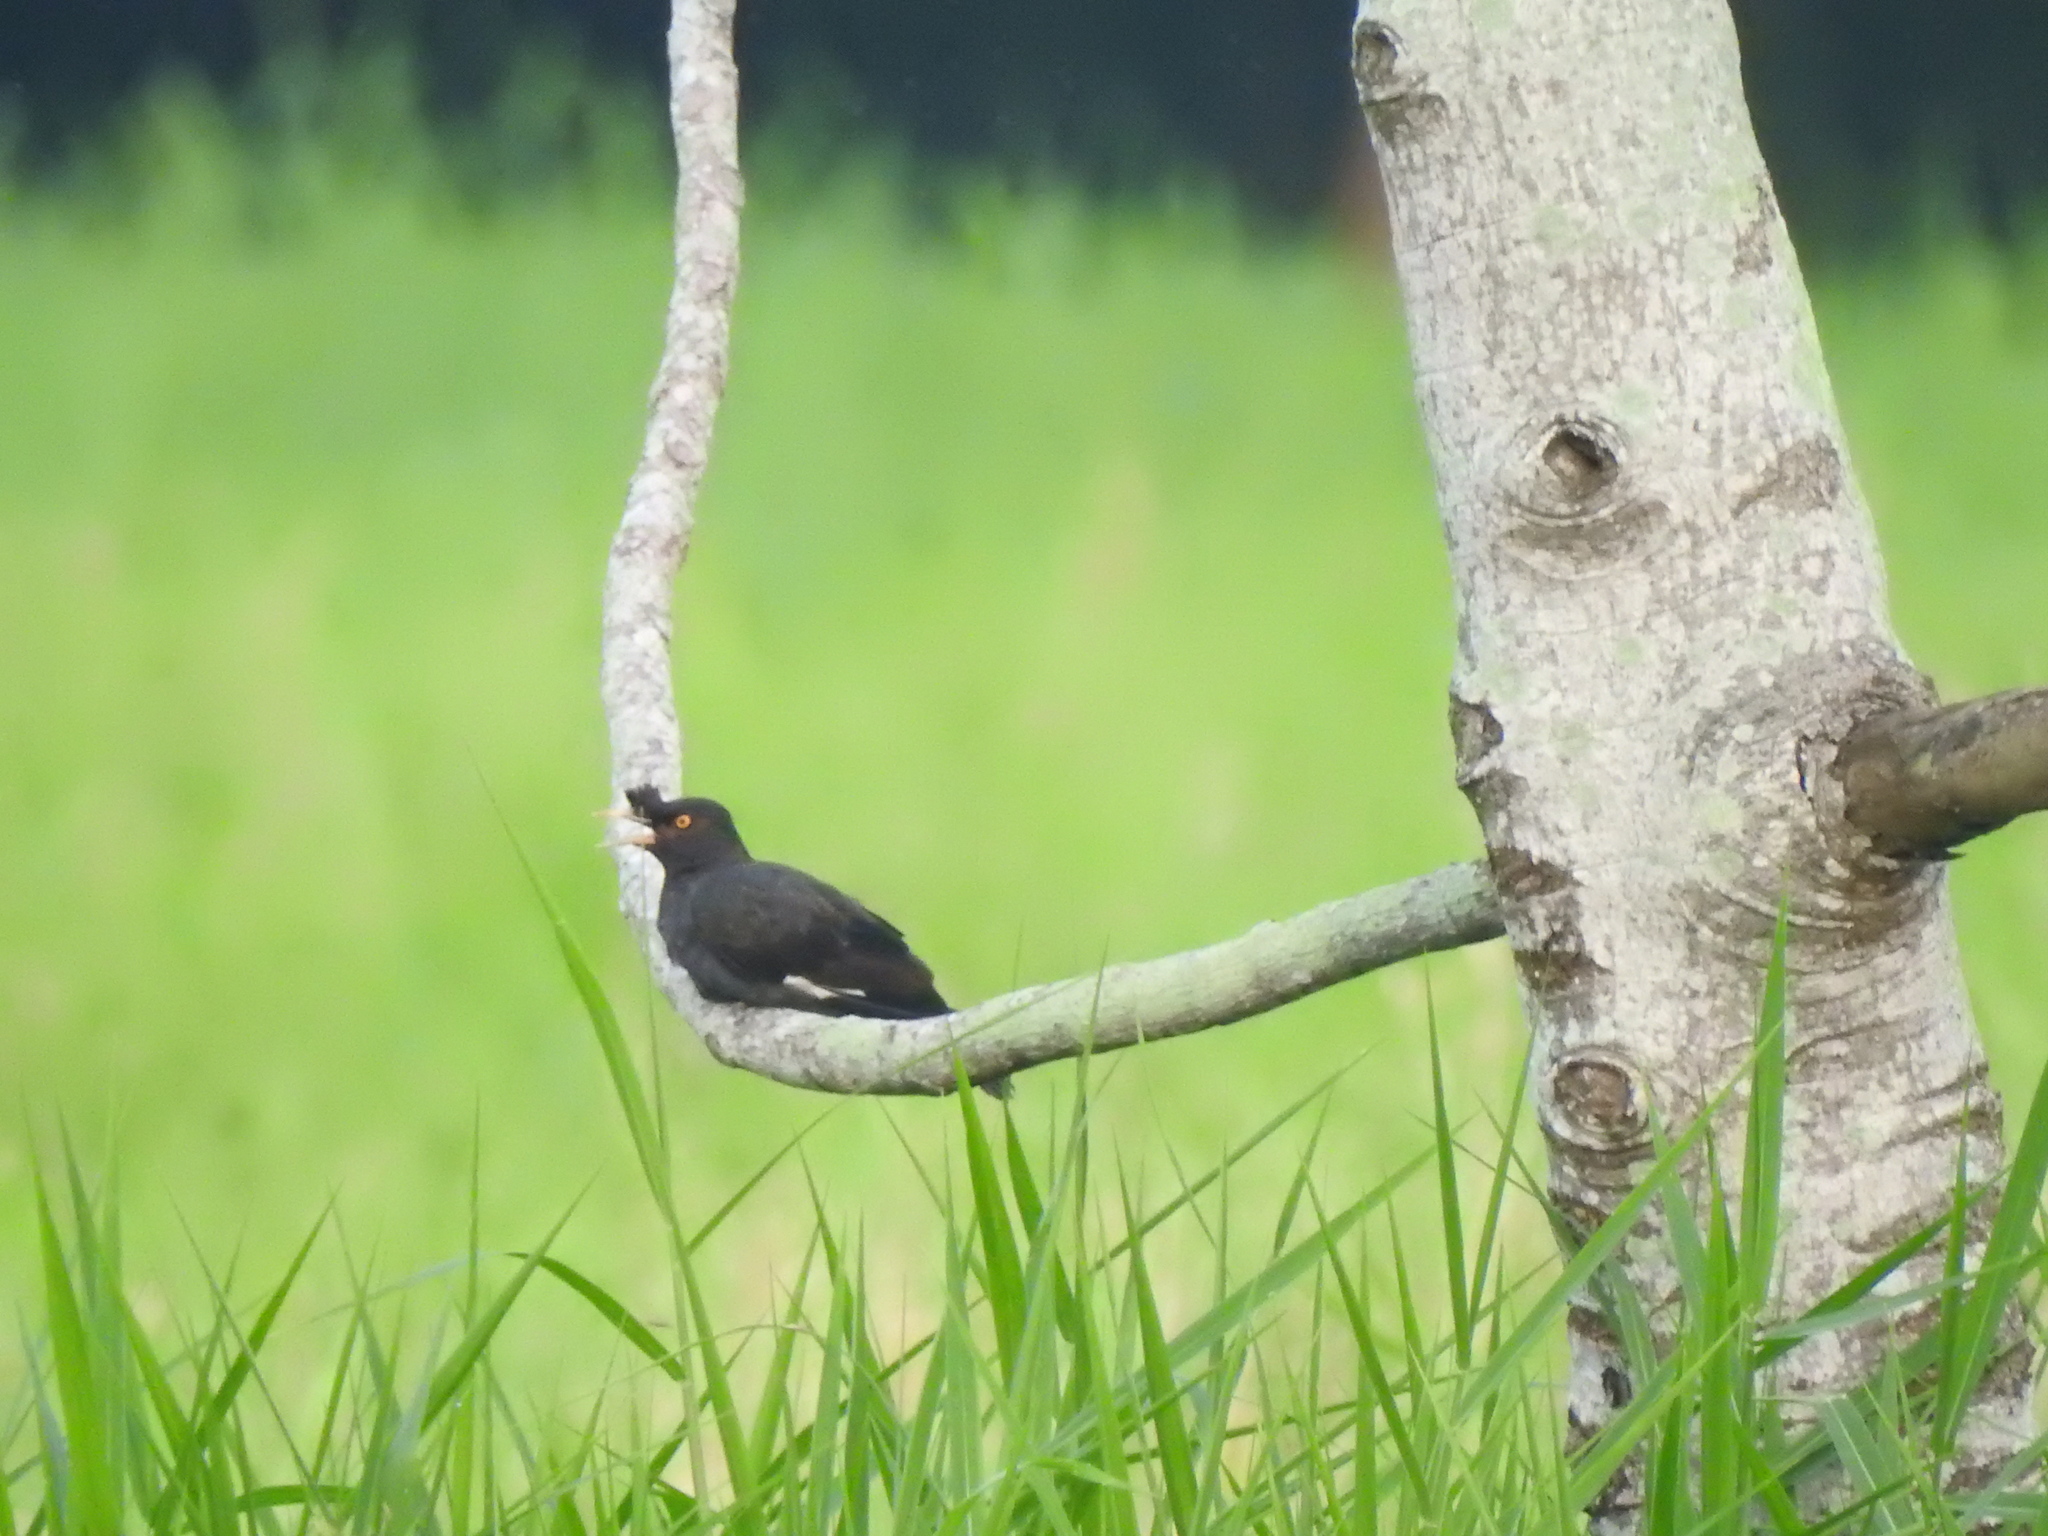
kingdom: Animalia
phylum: Chordata
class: Aves
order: Passeriformes
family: Sturnidae
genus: Acridotheres
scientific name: Acridotheres cristatellus
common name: Crested myna
